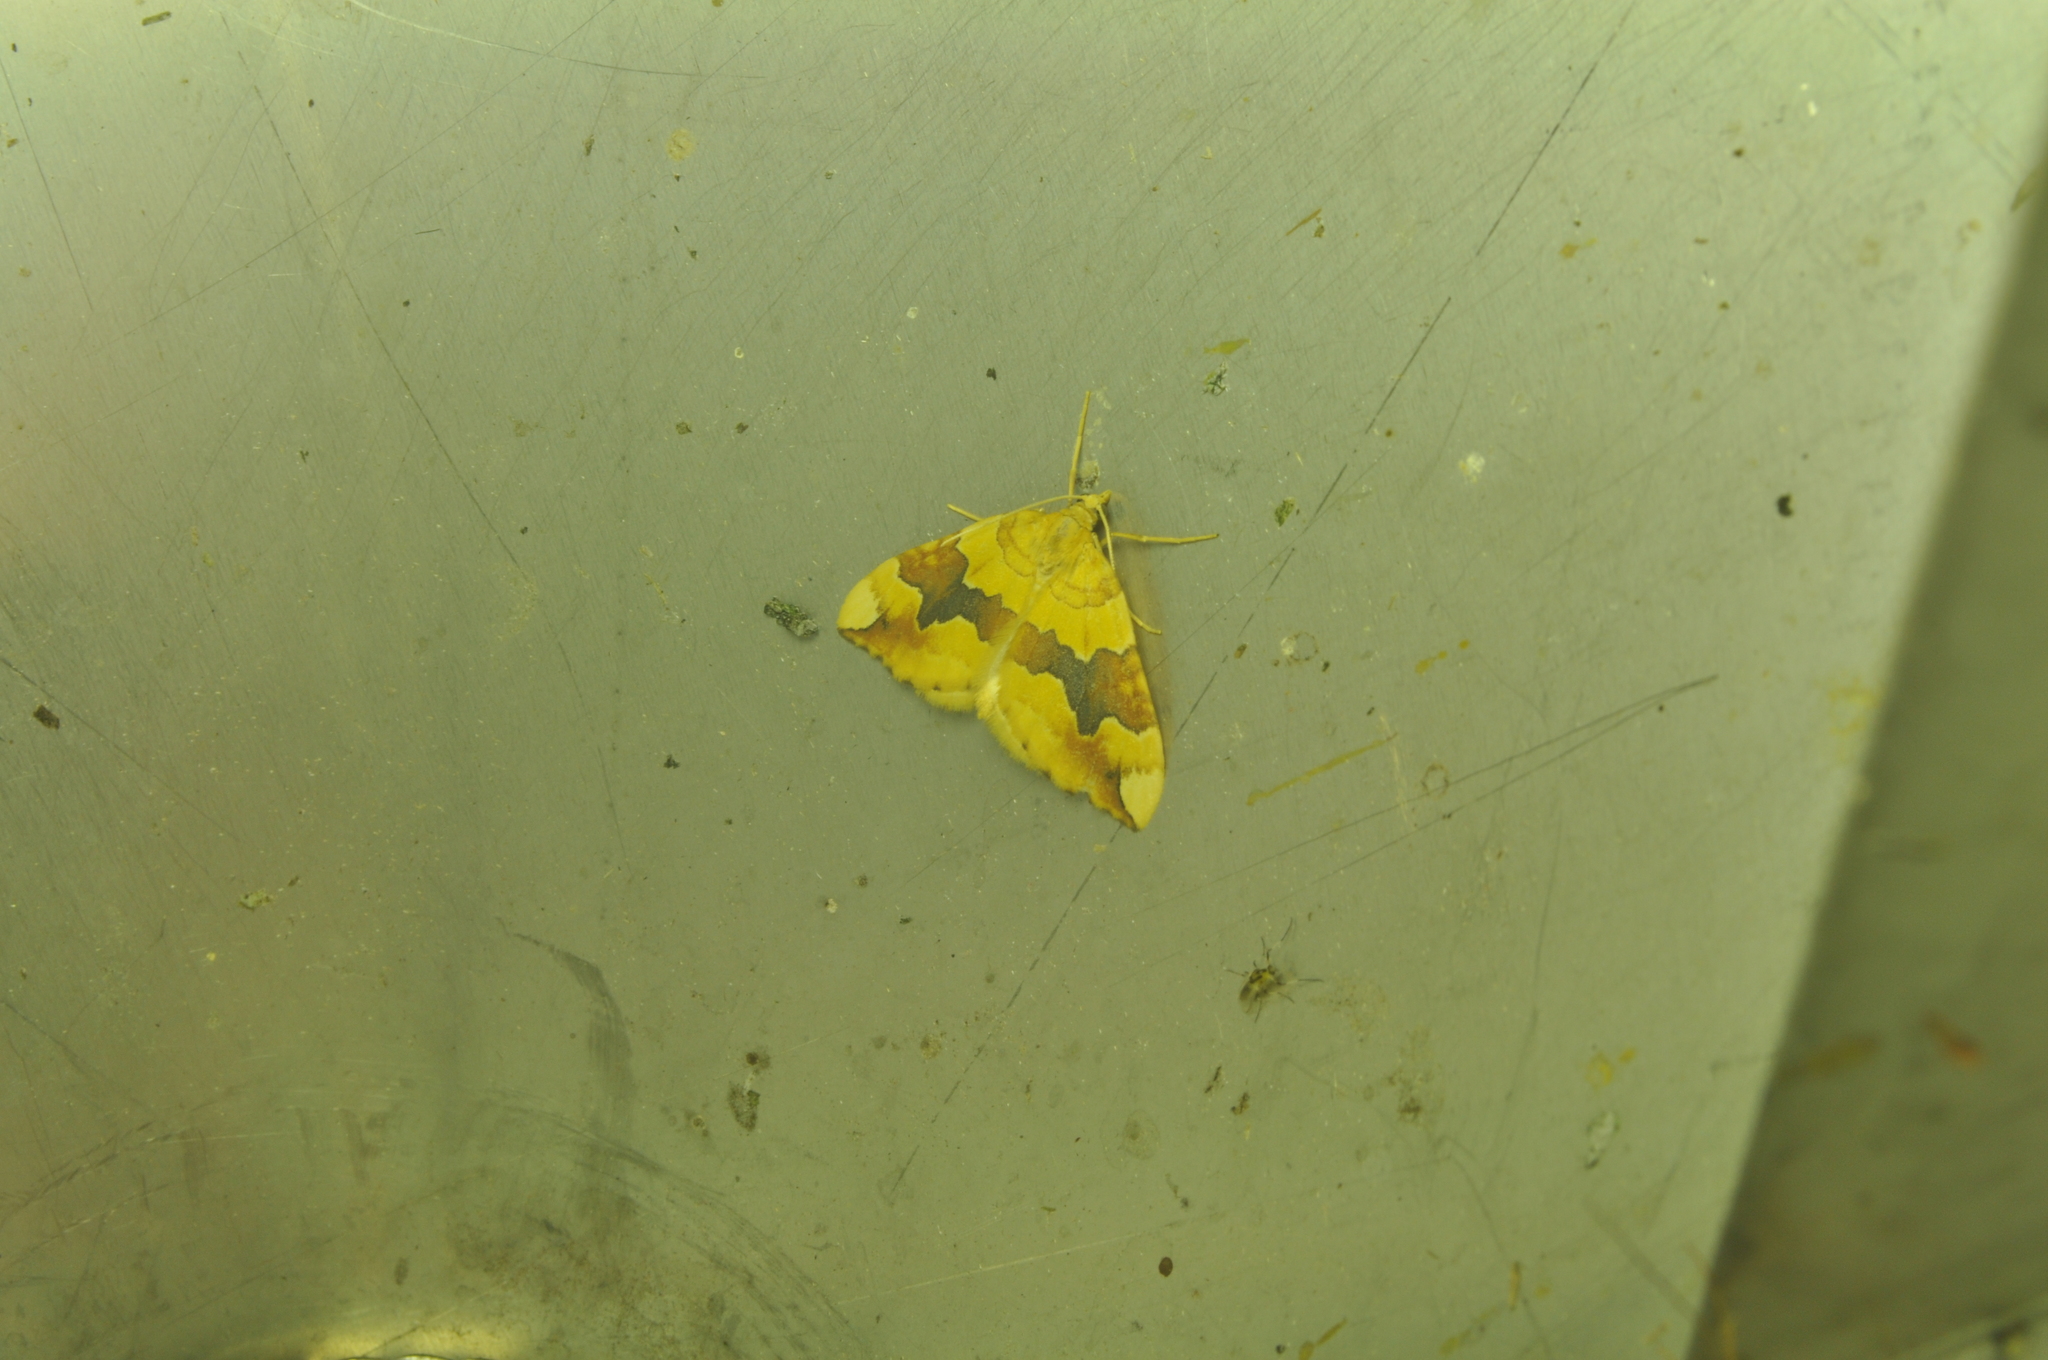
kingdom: Animalia
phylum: Arthropoda
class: Insecta
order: Lepidoptera
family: Geometridae
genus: Cidaria
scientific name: Cidaria fulvata
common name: Barred yellow
